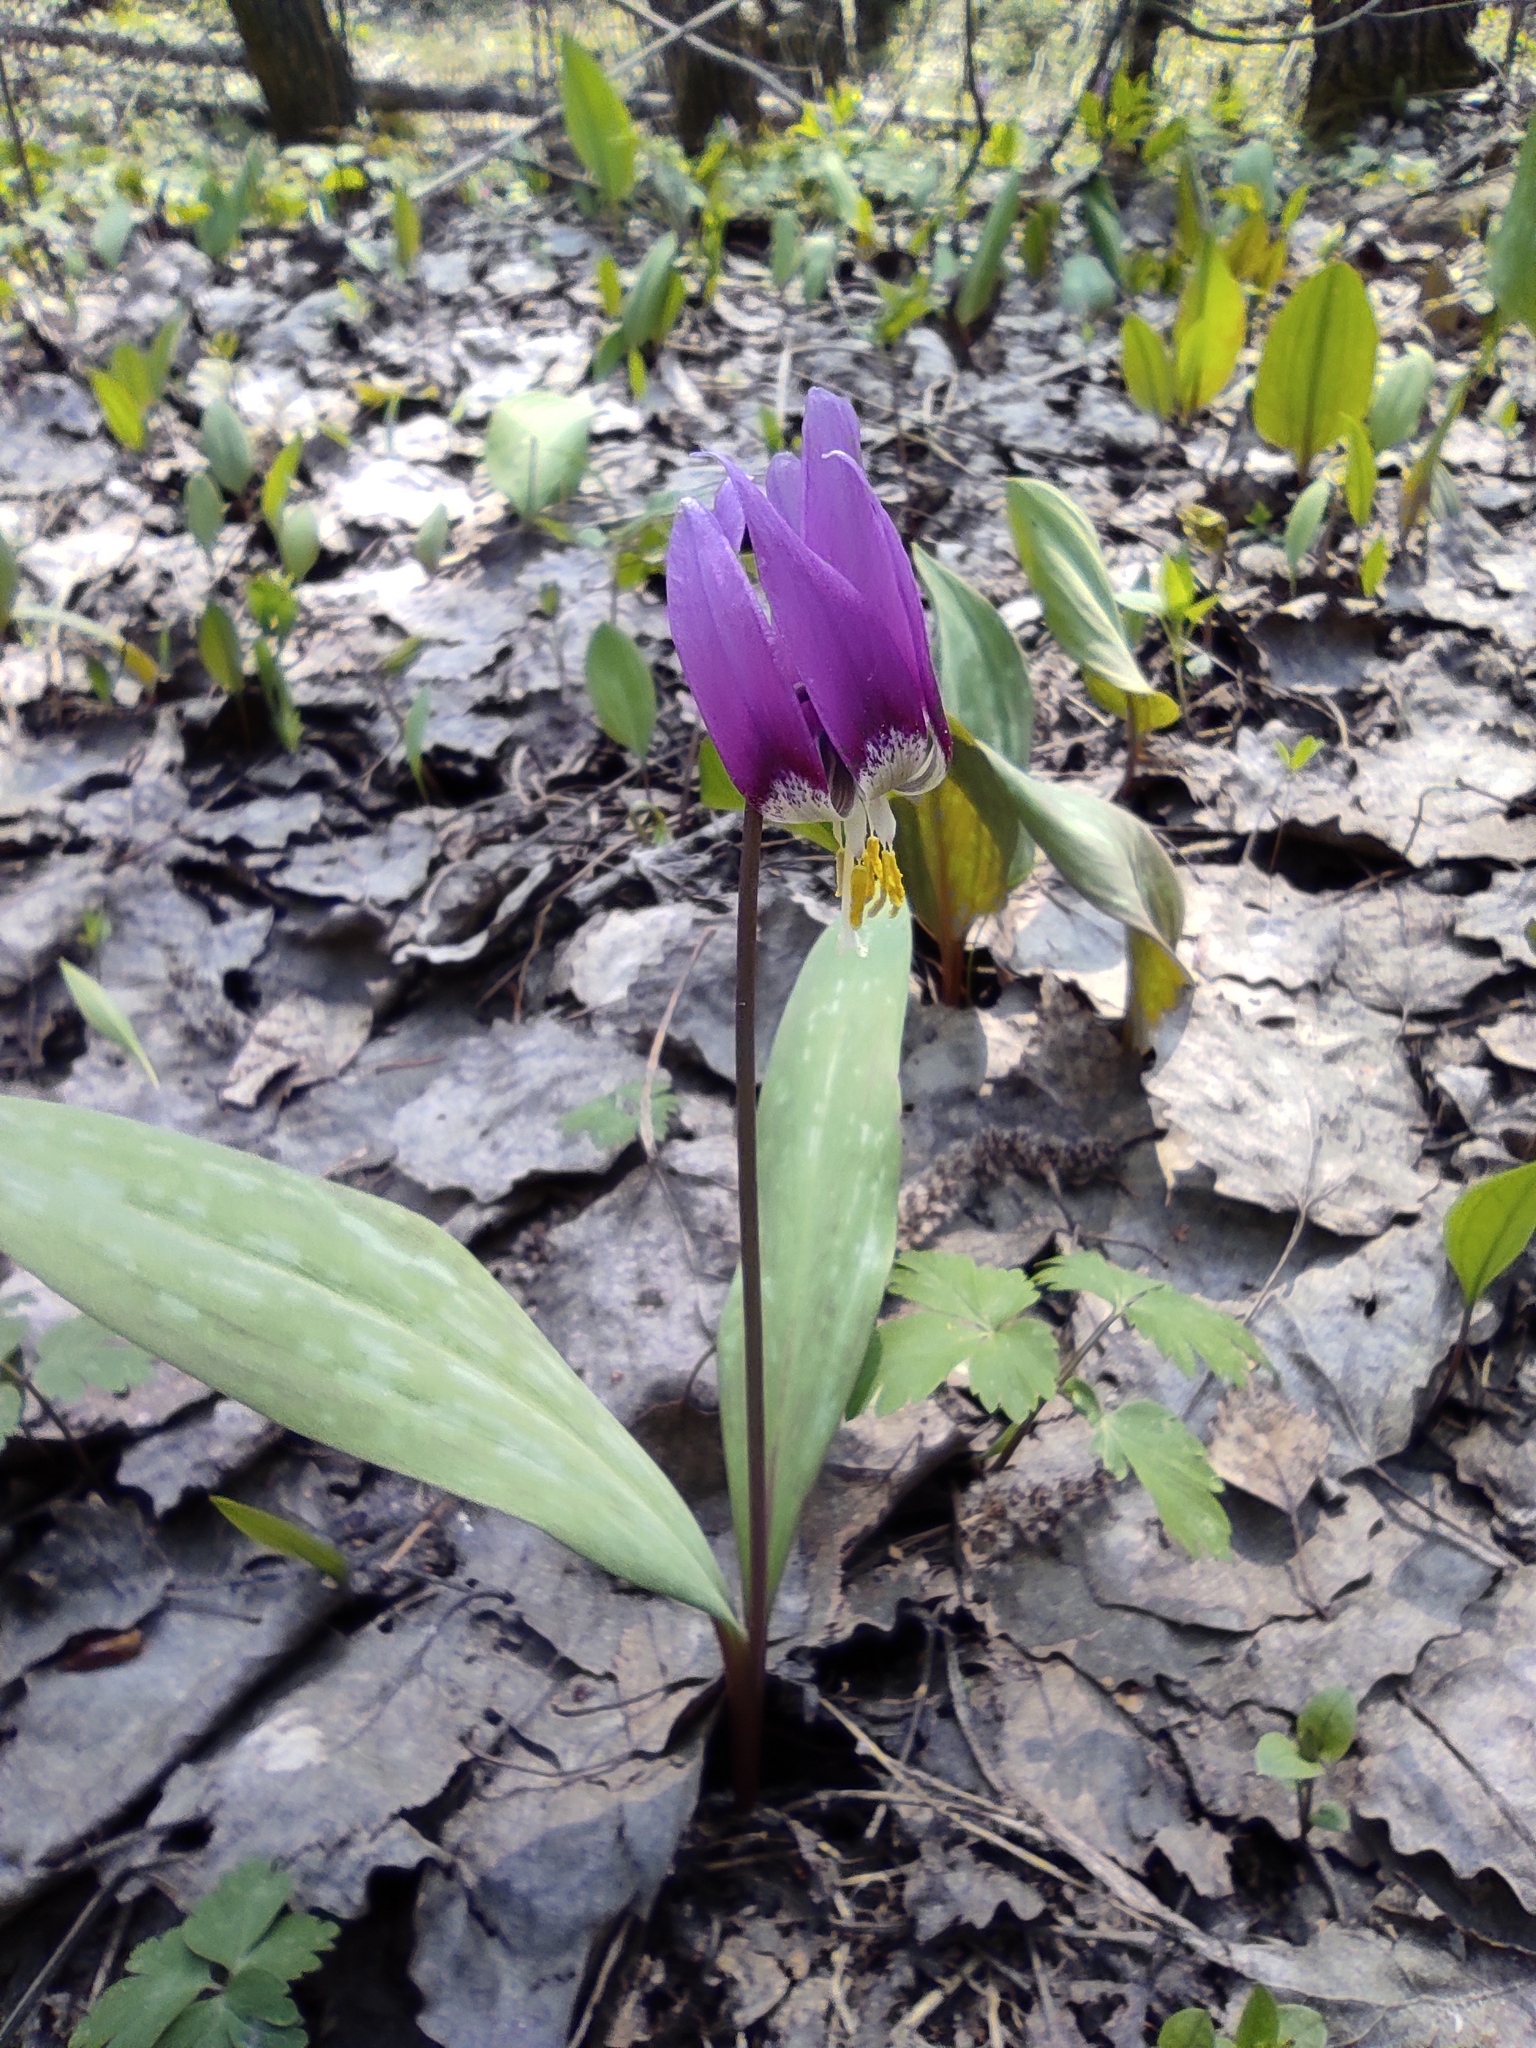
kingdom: Plantae
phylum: Tracheophyta
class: Liliopsida
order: Liliales
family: Liliaceae
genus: Erythronium
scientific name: Erythronium sibiricum
